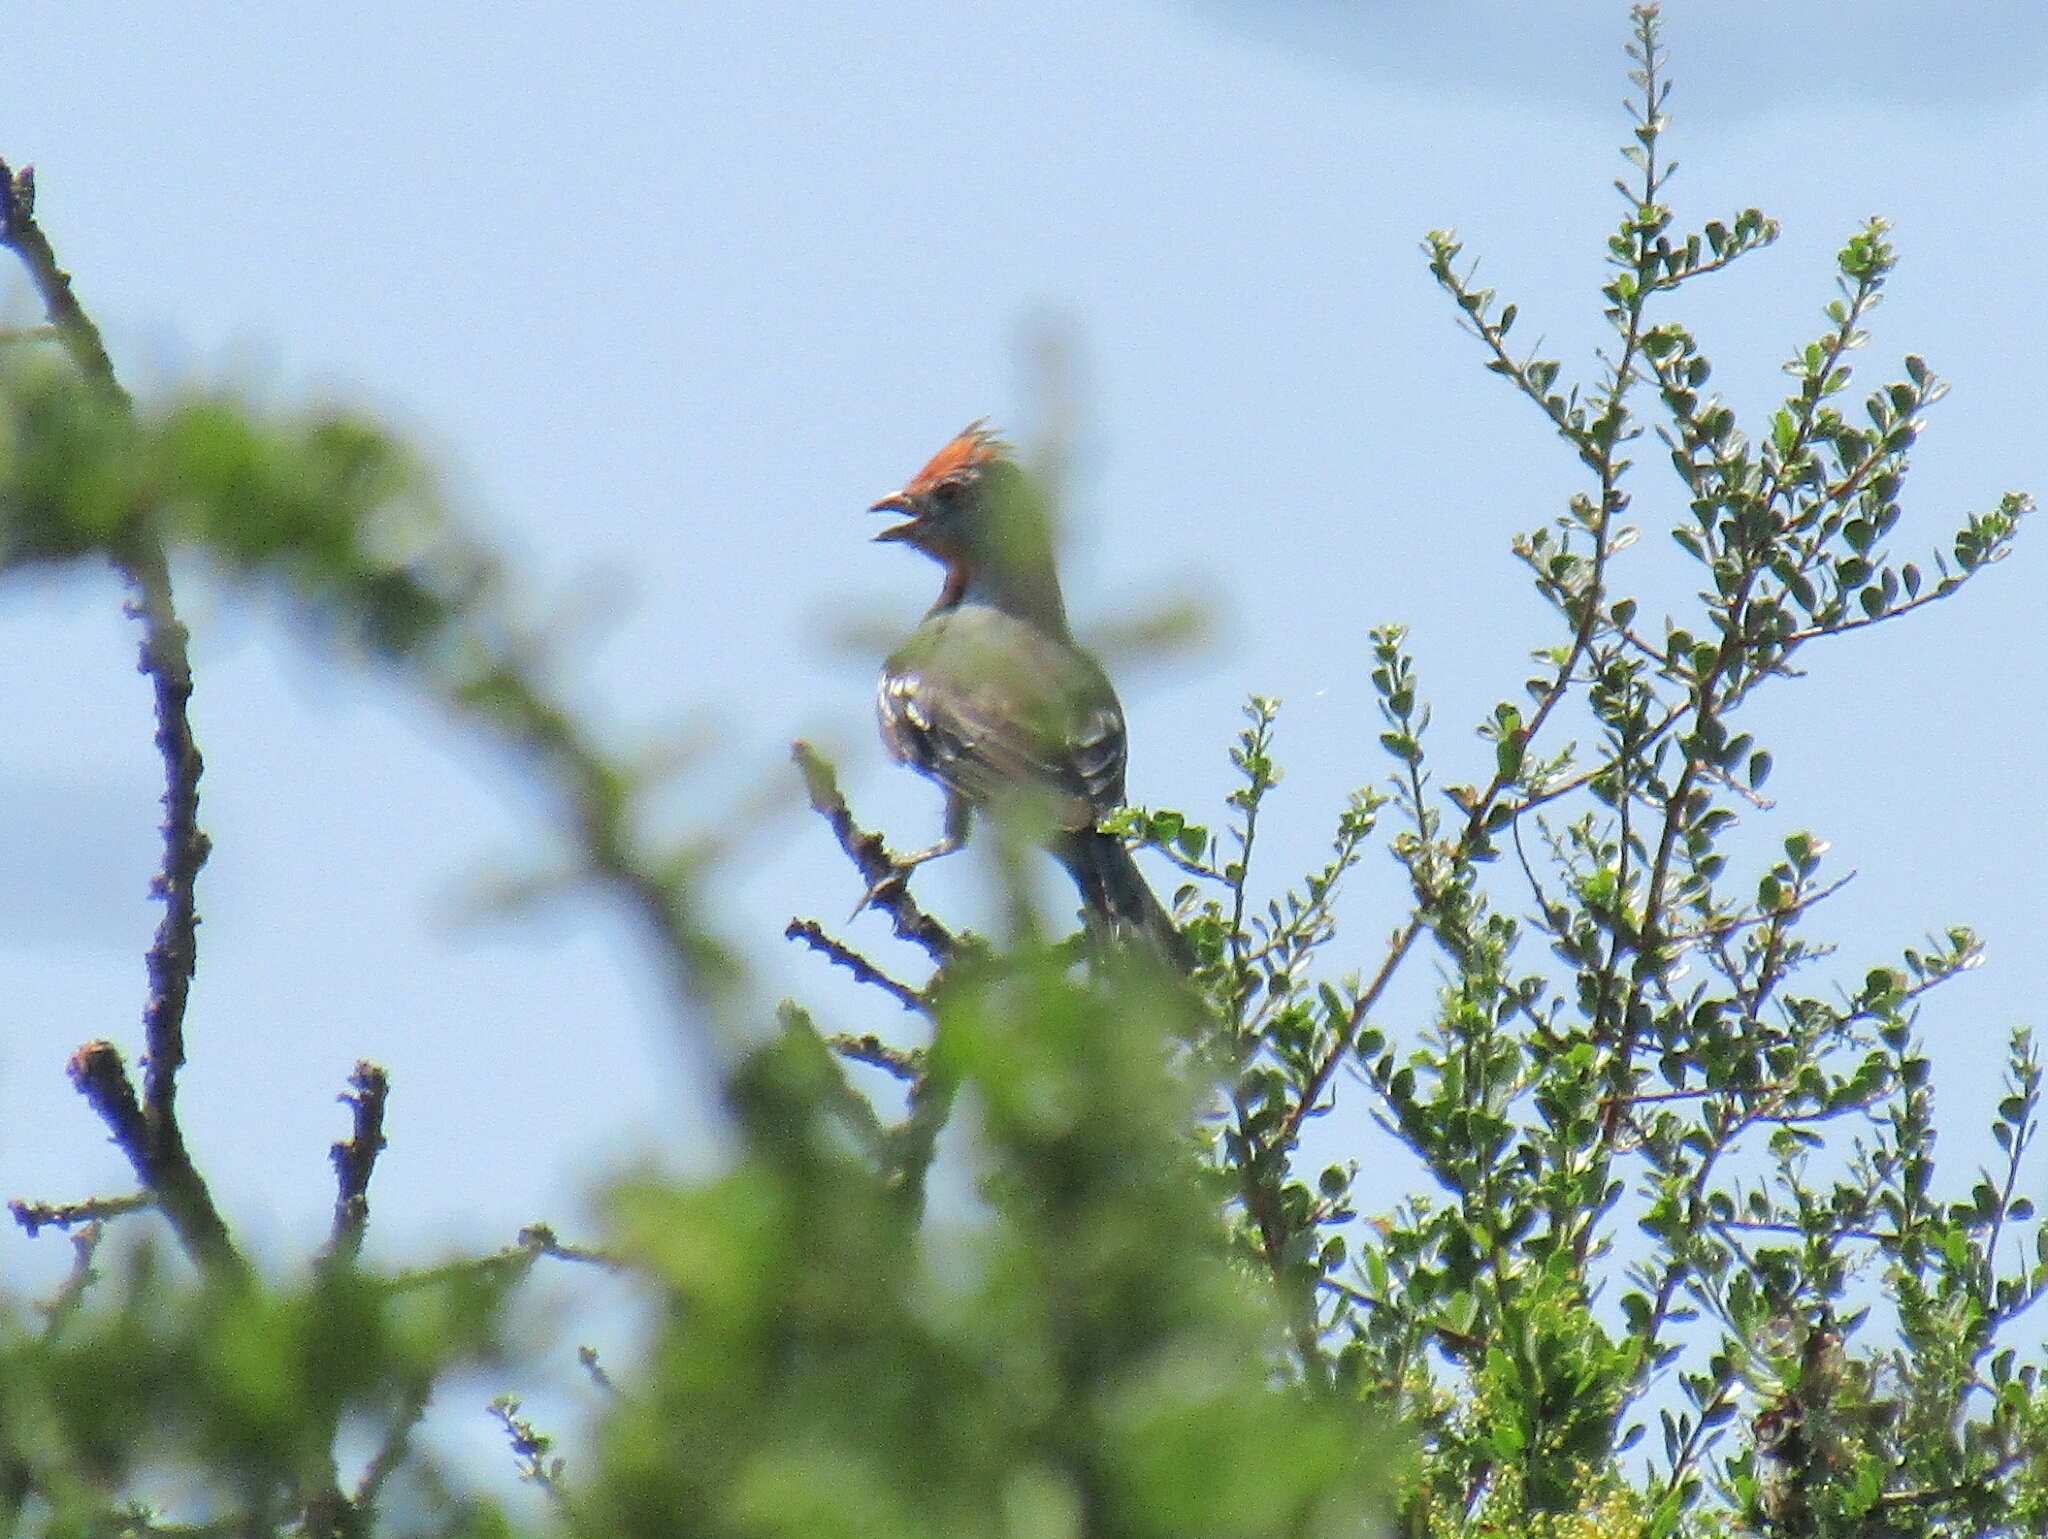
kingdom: Animalia
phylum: Chordata
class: Aves
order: Passeriformes
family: Cotingidae
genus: Phytotoma
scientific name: Phytotoma rutila
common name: White-tipped plantcutter
